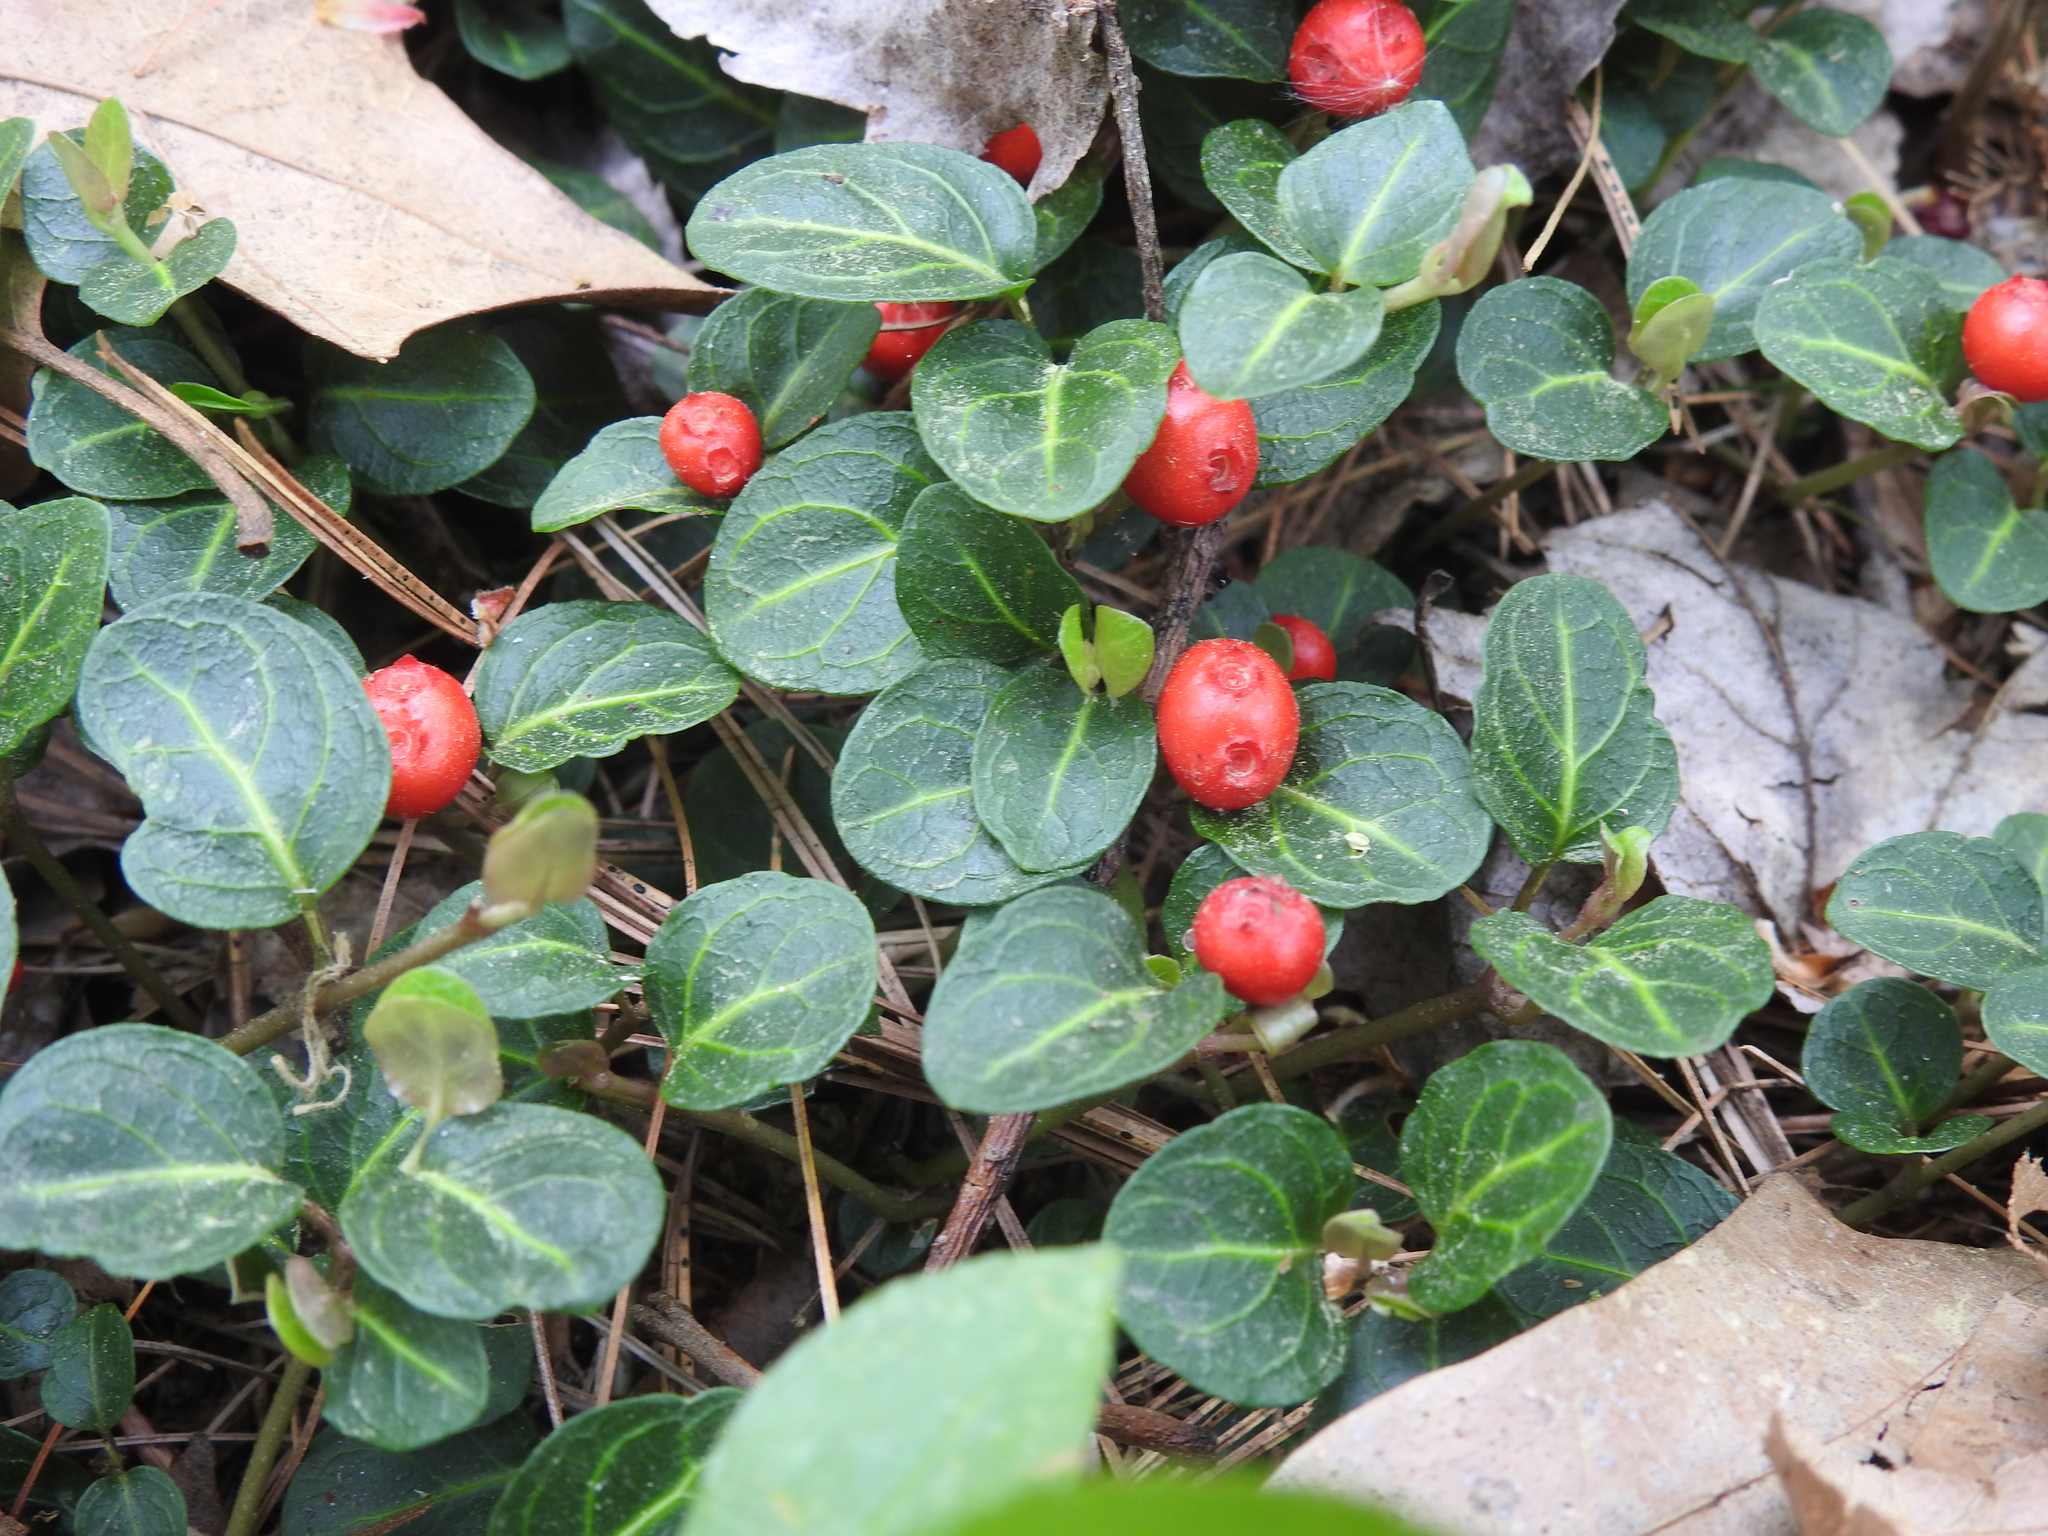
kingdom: Plantae
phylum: Tracheophyta
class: Magnoliopsida
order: Gentianales
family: Rubiaceae
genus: Mitchella
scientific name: Mitchella repens
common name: Partridge-berry
